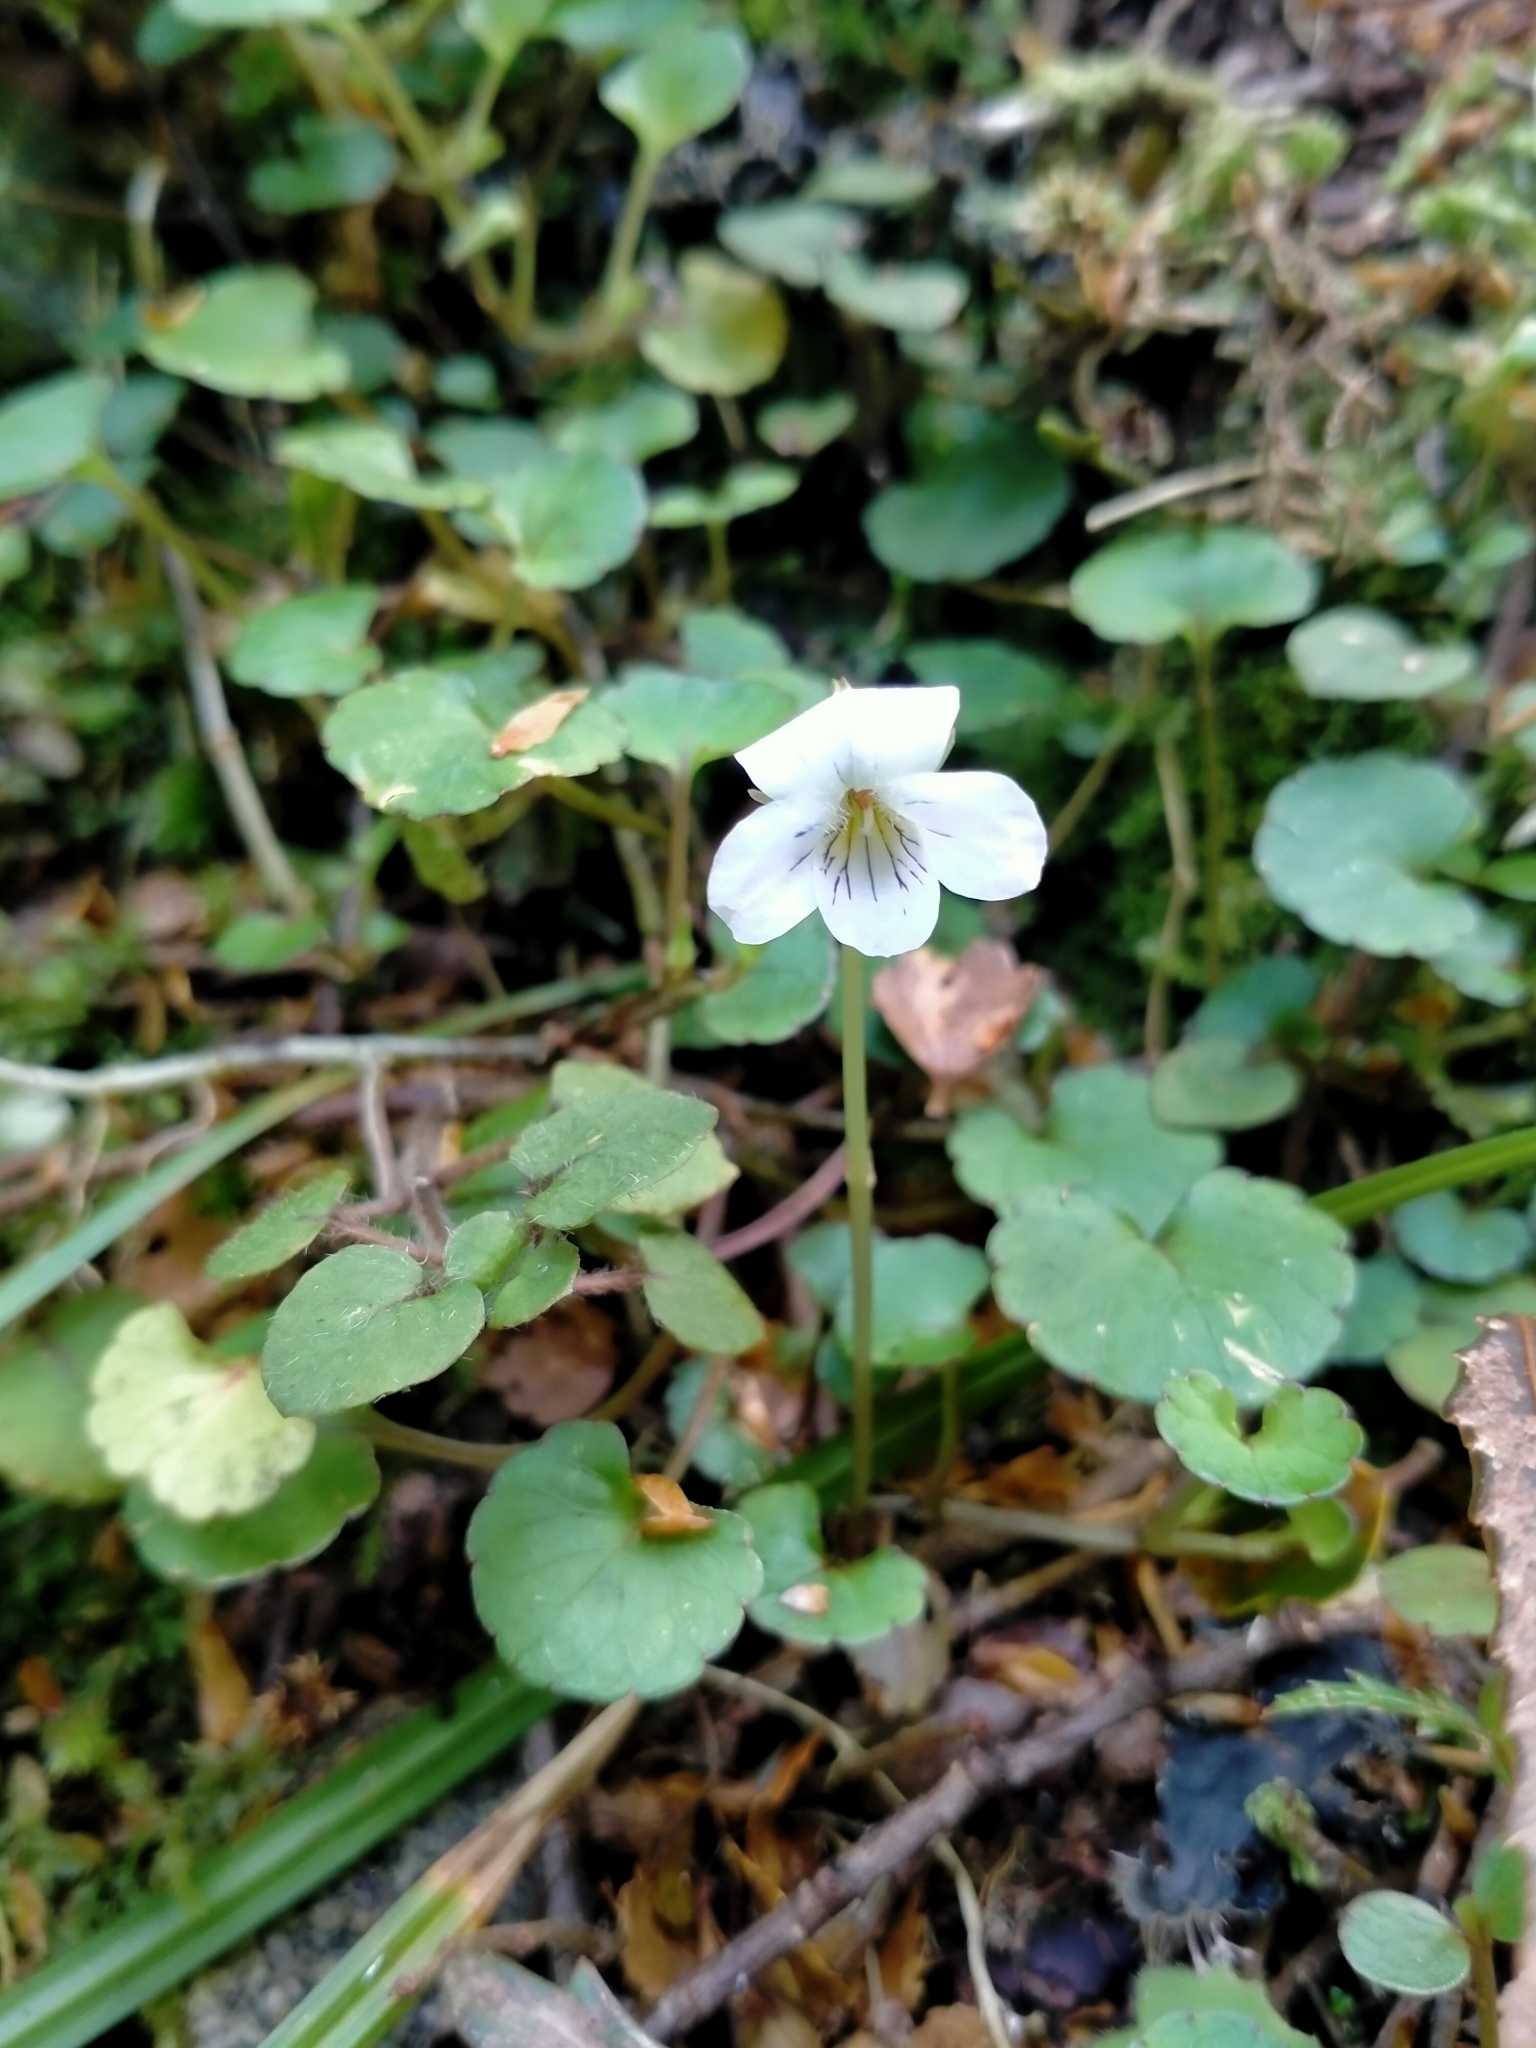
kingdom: Plantae
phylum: Tracheophyta
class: Magnoliopsida
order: Malpighiales
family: Violaceae
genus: Viola
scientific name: Viola filicaulis
